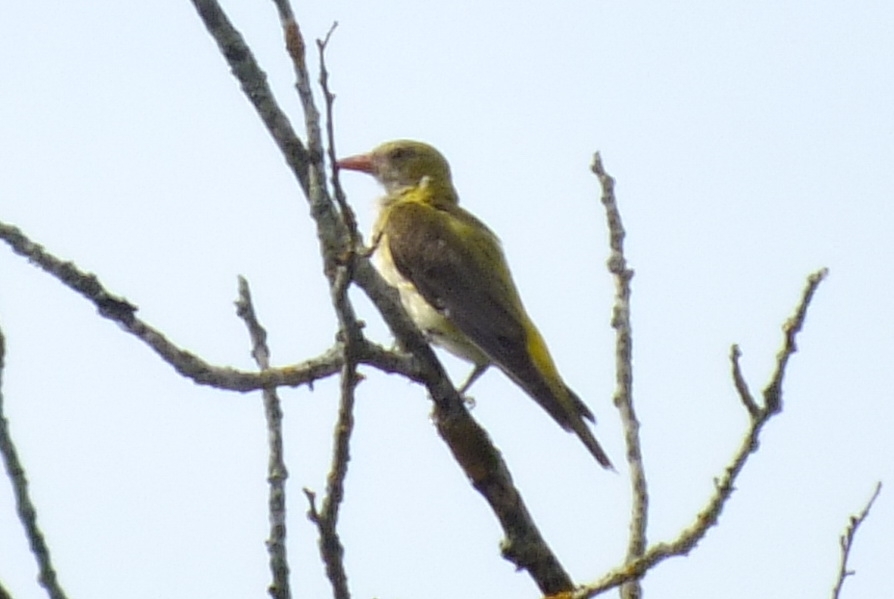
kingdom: Animalia
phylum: Chordata
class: Aves
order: Passeriformes
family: Oriolidae
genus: Oriolus
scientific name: Oriolus oriolus
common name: Eurasian golden oriole
